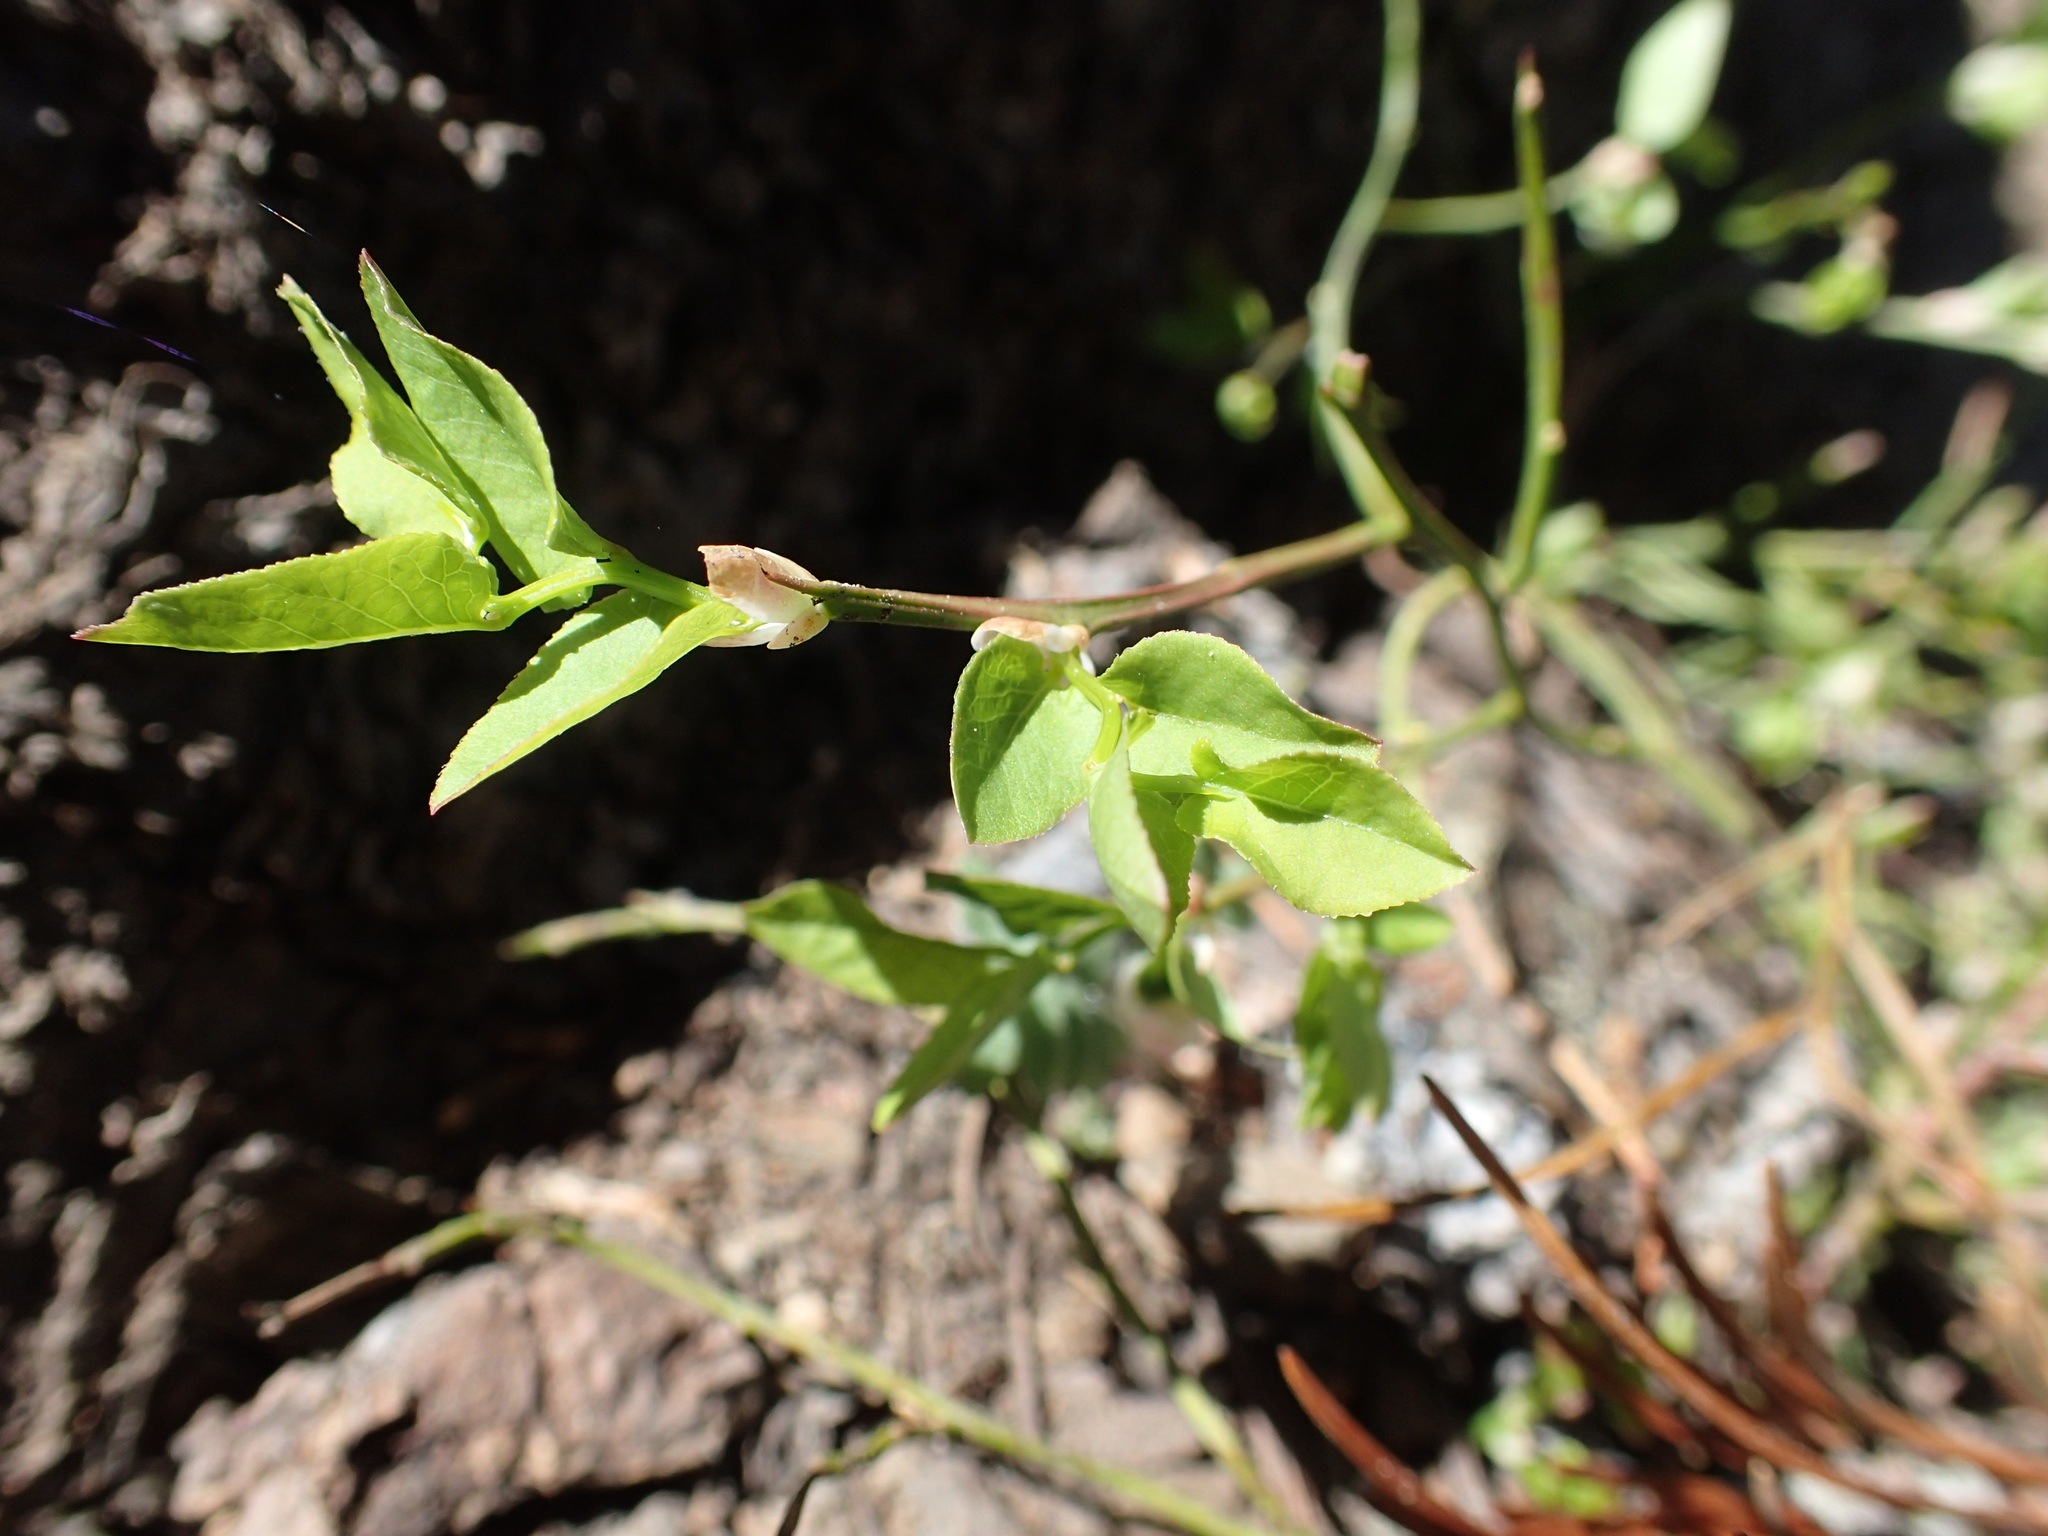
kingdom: Plantae
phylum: Tracheophyta
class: Magnoliopsida
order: Ericales
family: Ericaceae
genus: Vaccinium
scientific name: Vaccinium scoparium
